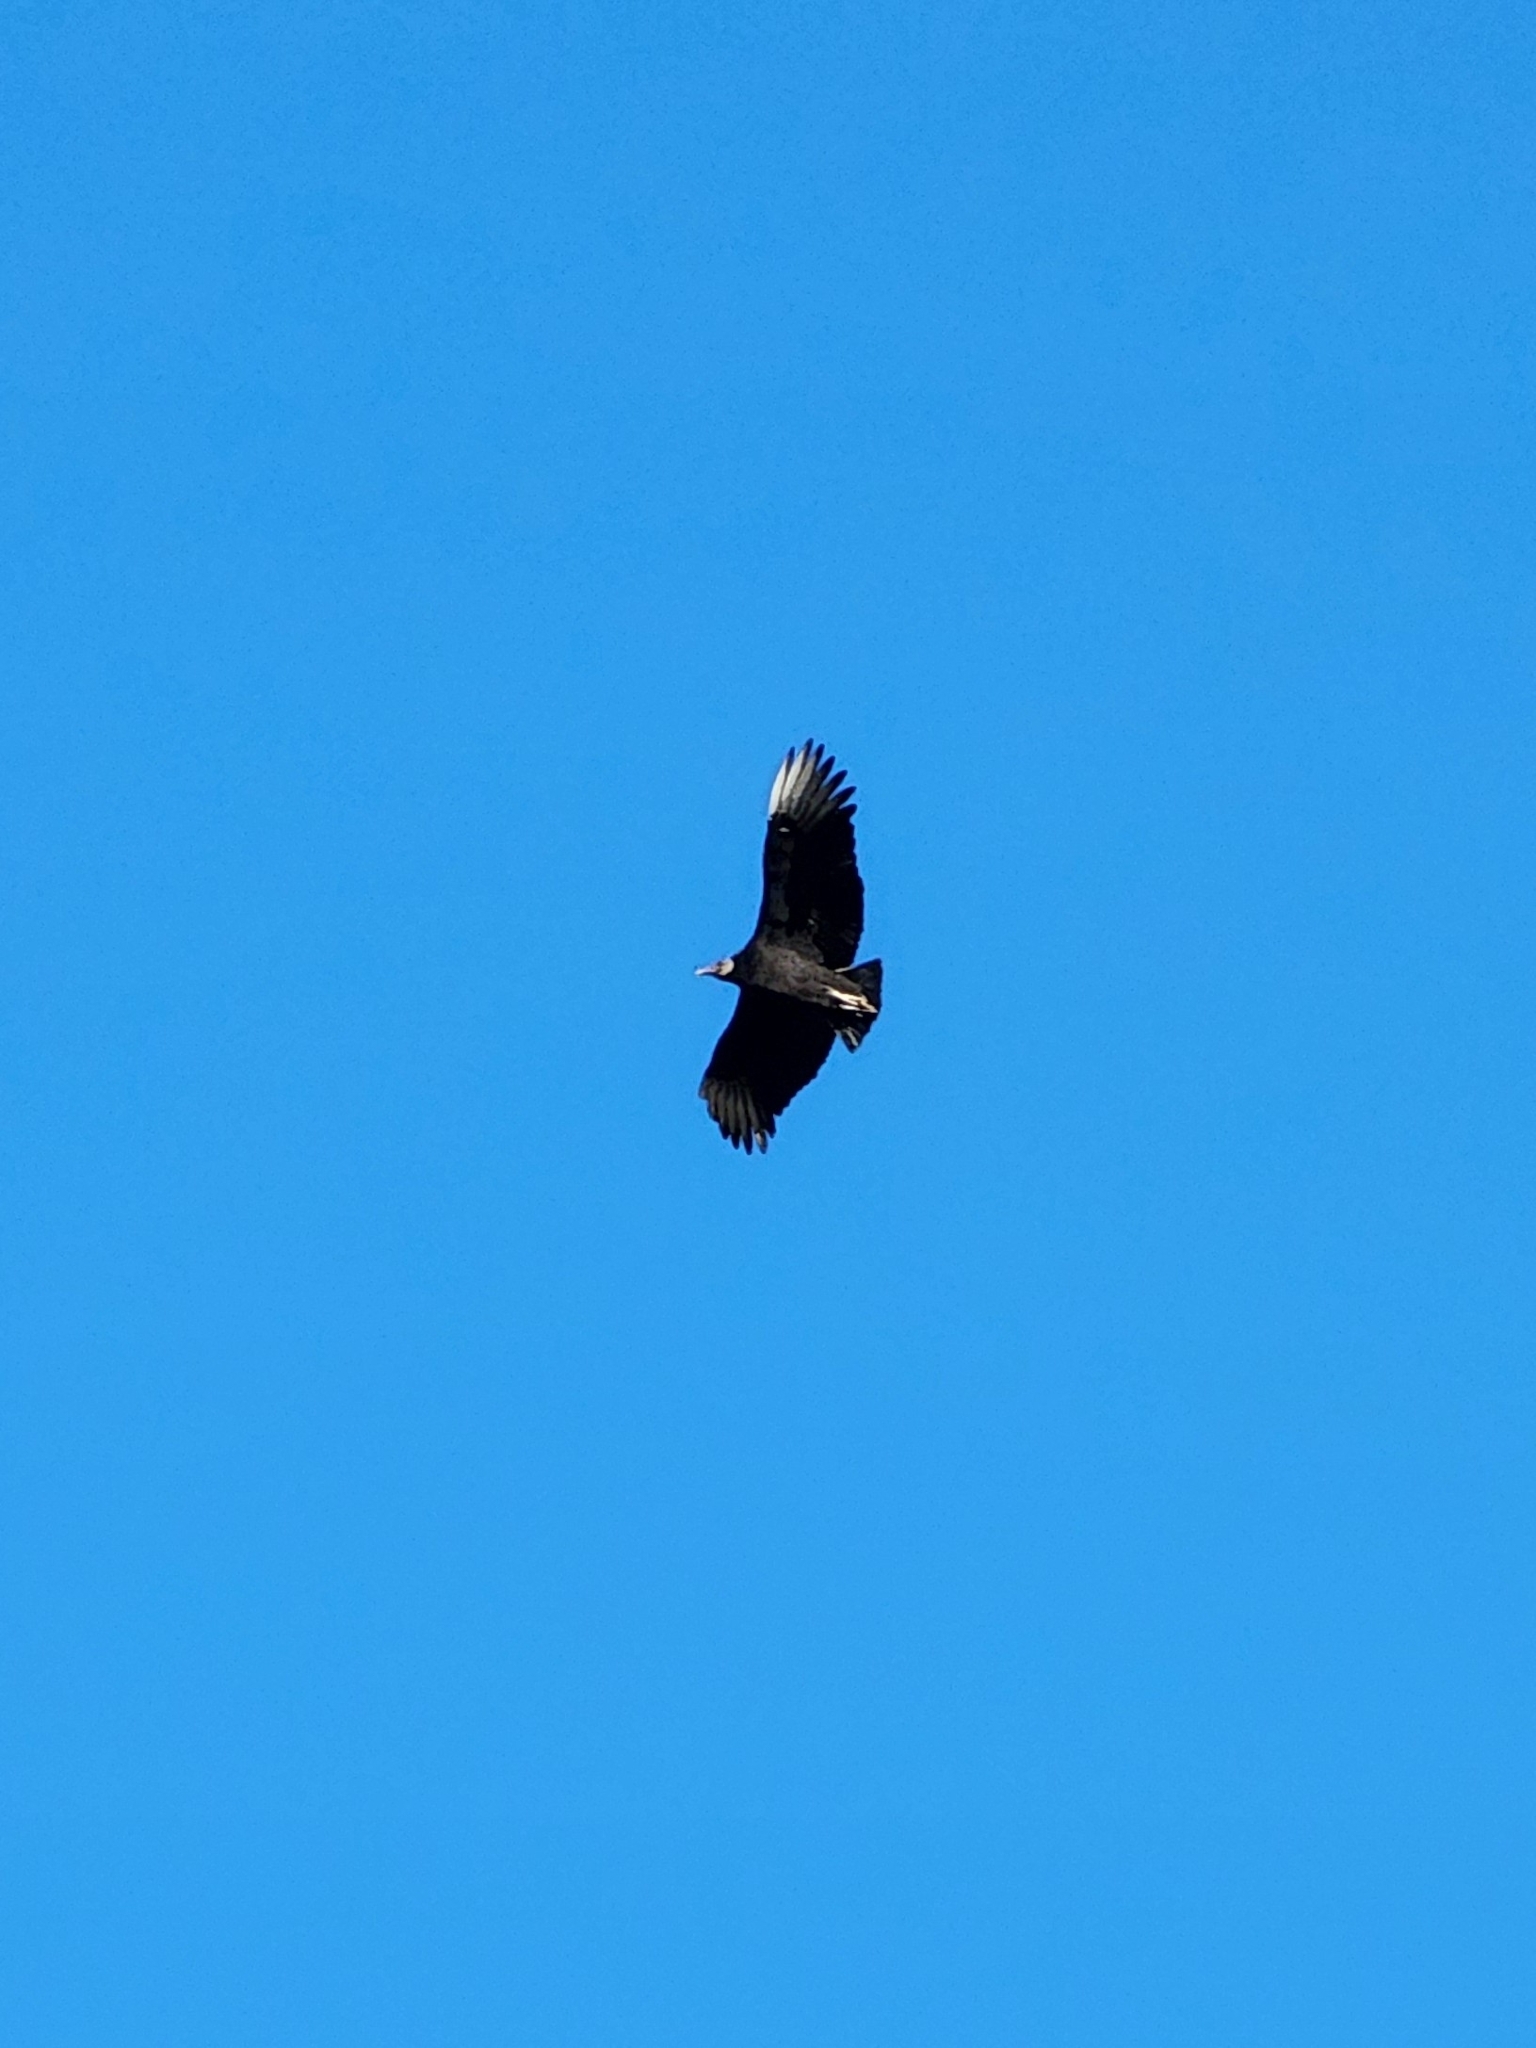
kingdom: Animalia
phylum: Chordata
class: Aves
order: Accipitriformes
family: Cathartidae
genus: Coragyps
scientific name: Coragyps atratus
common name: Black vulture
